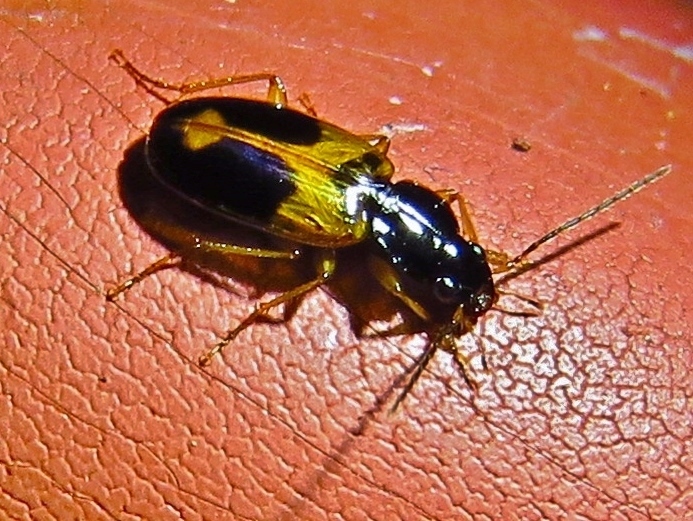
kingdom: Animalia
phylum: Arthropoda
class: Insecta
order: Coleoptera
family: Carabidae
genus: Badister
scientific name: Badister elegans
